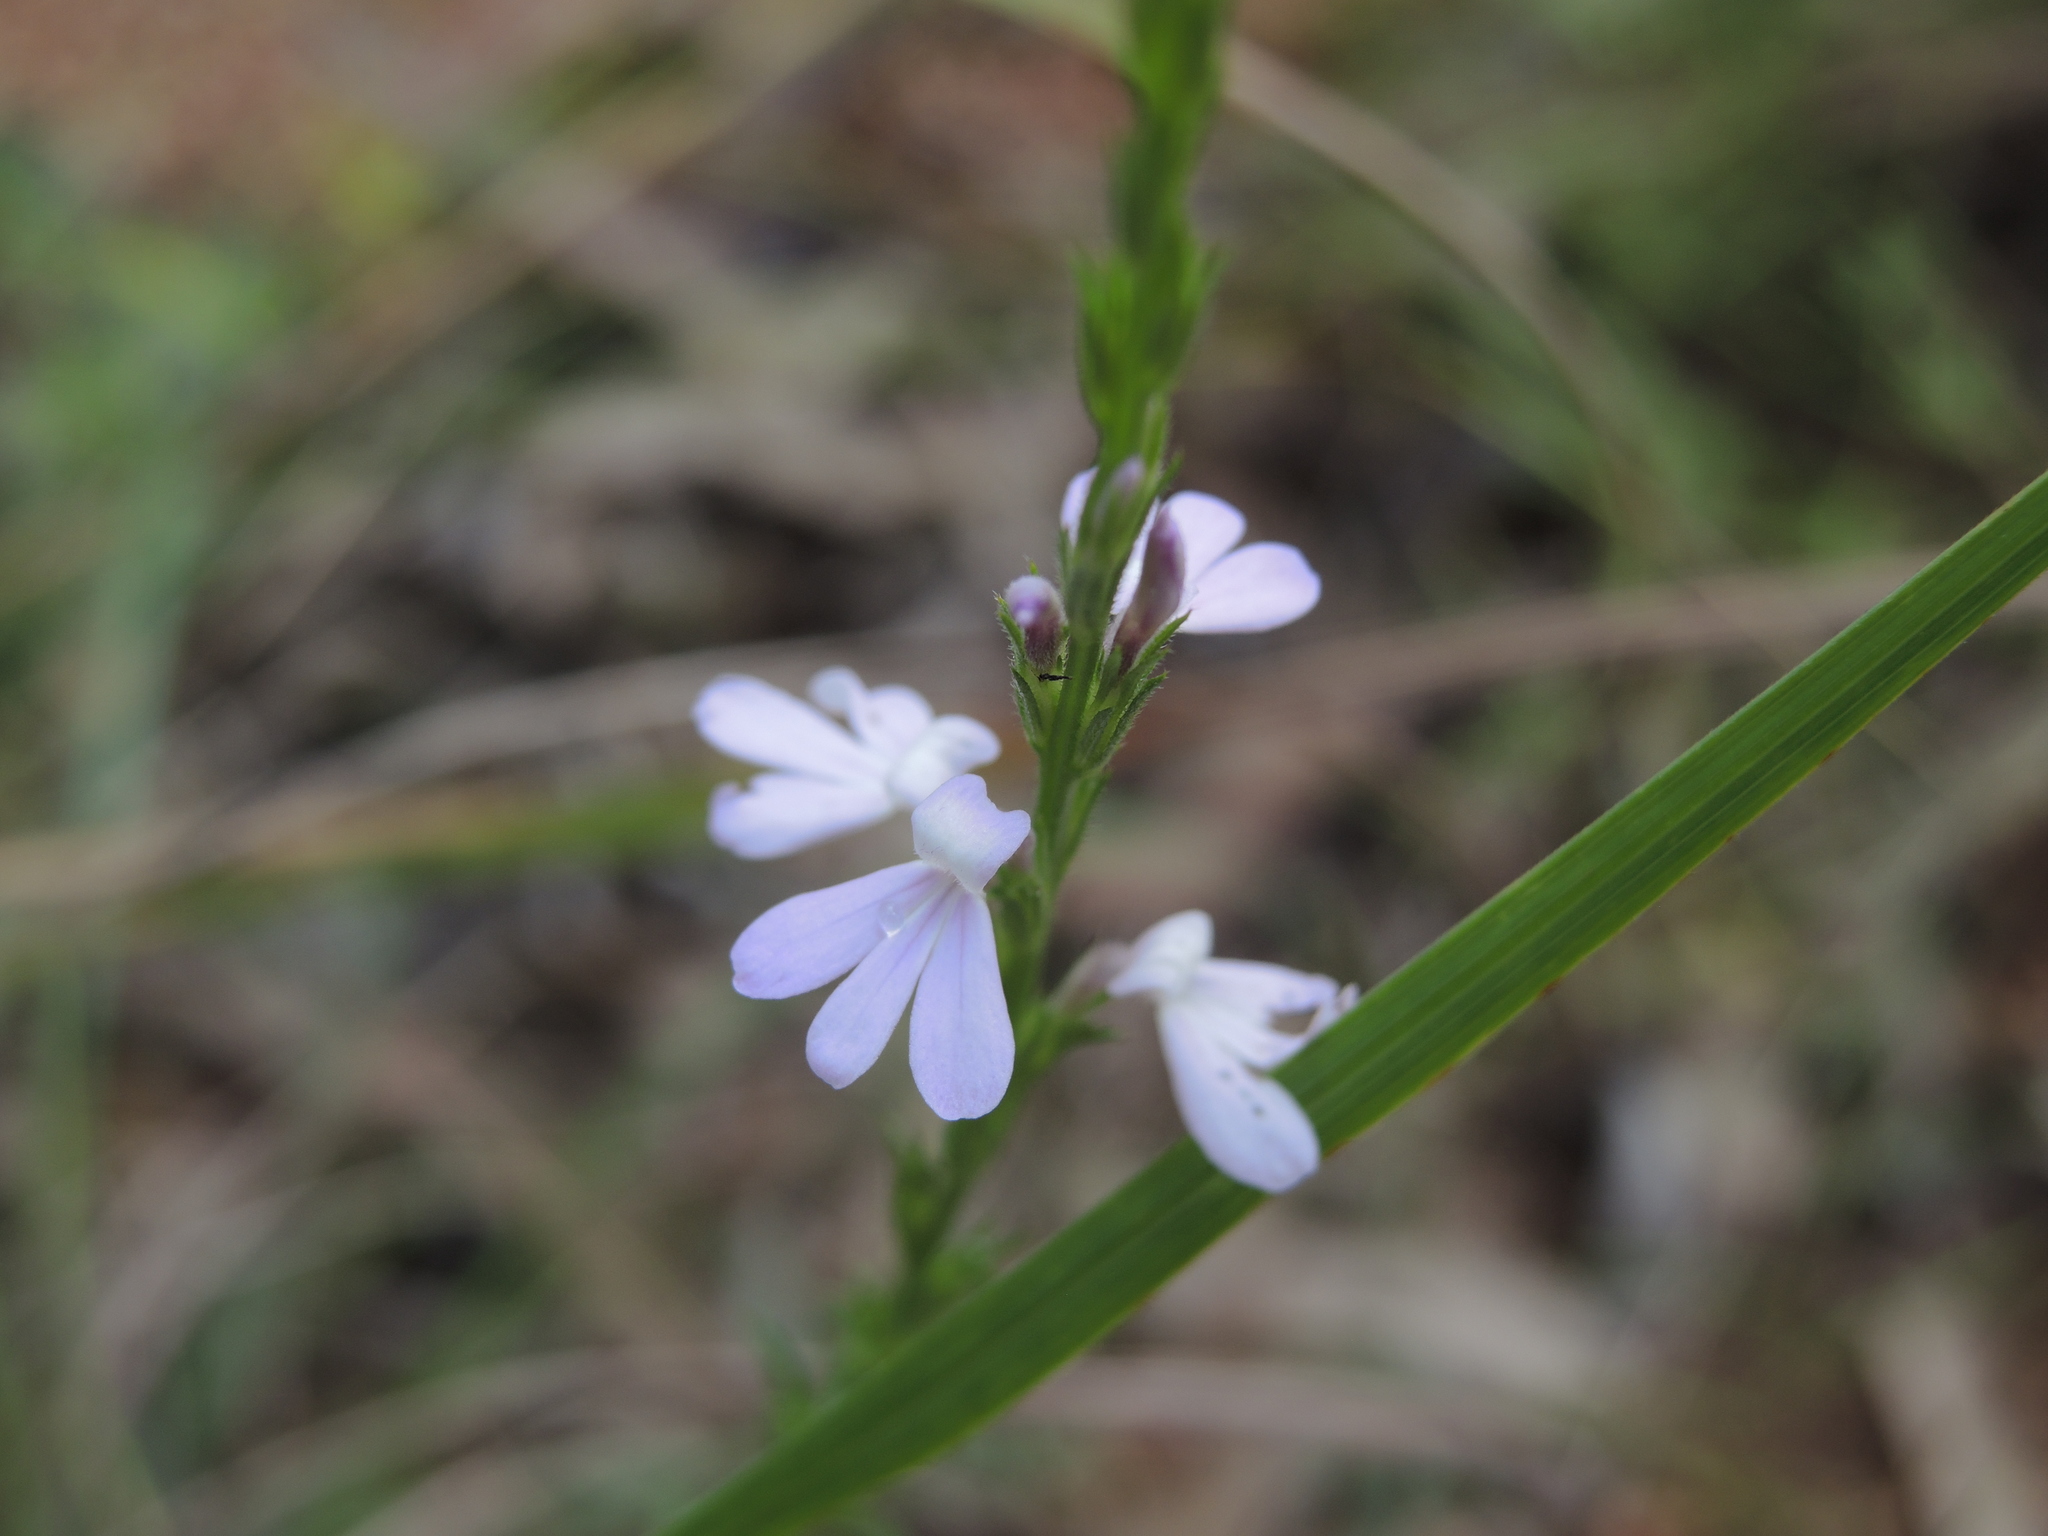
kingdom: Plantae
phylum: Tracheophyta
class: Magnoliopsida
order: Lamiales
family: Orobanchaceae
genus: Striga
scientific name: Striga curviflora
